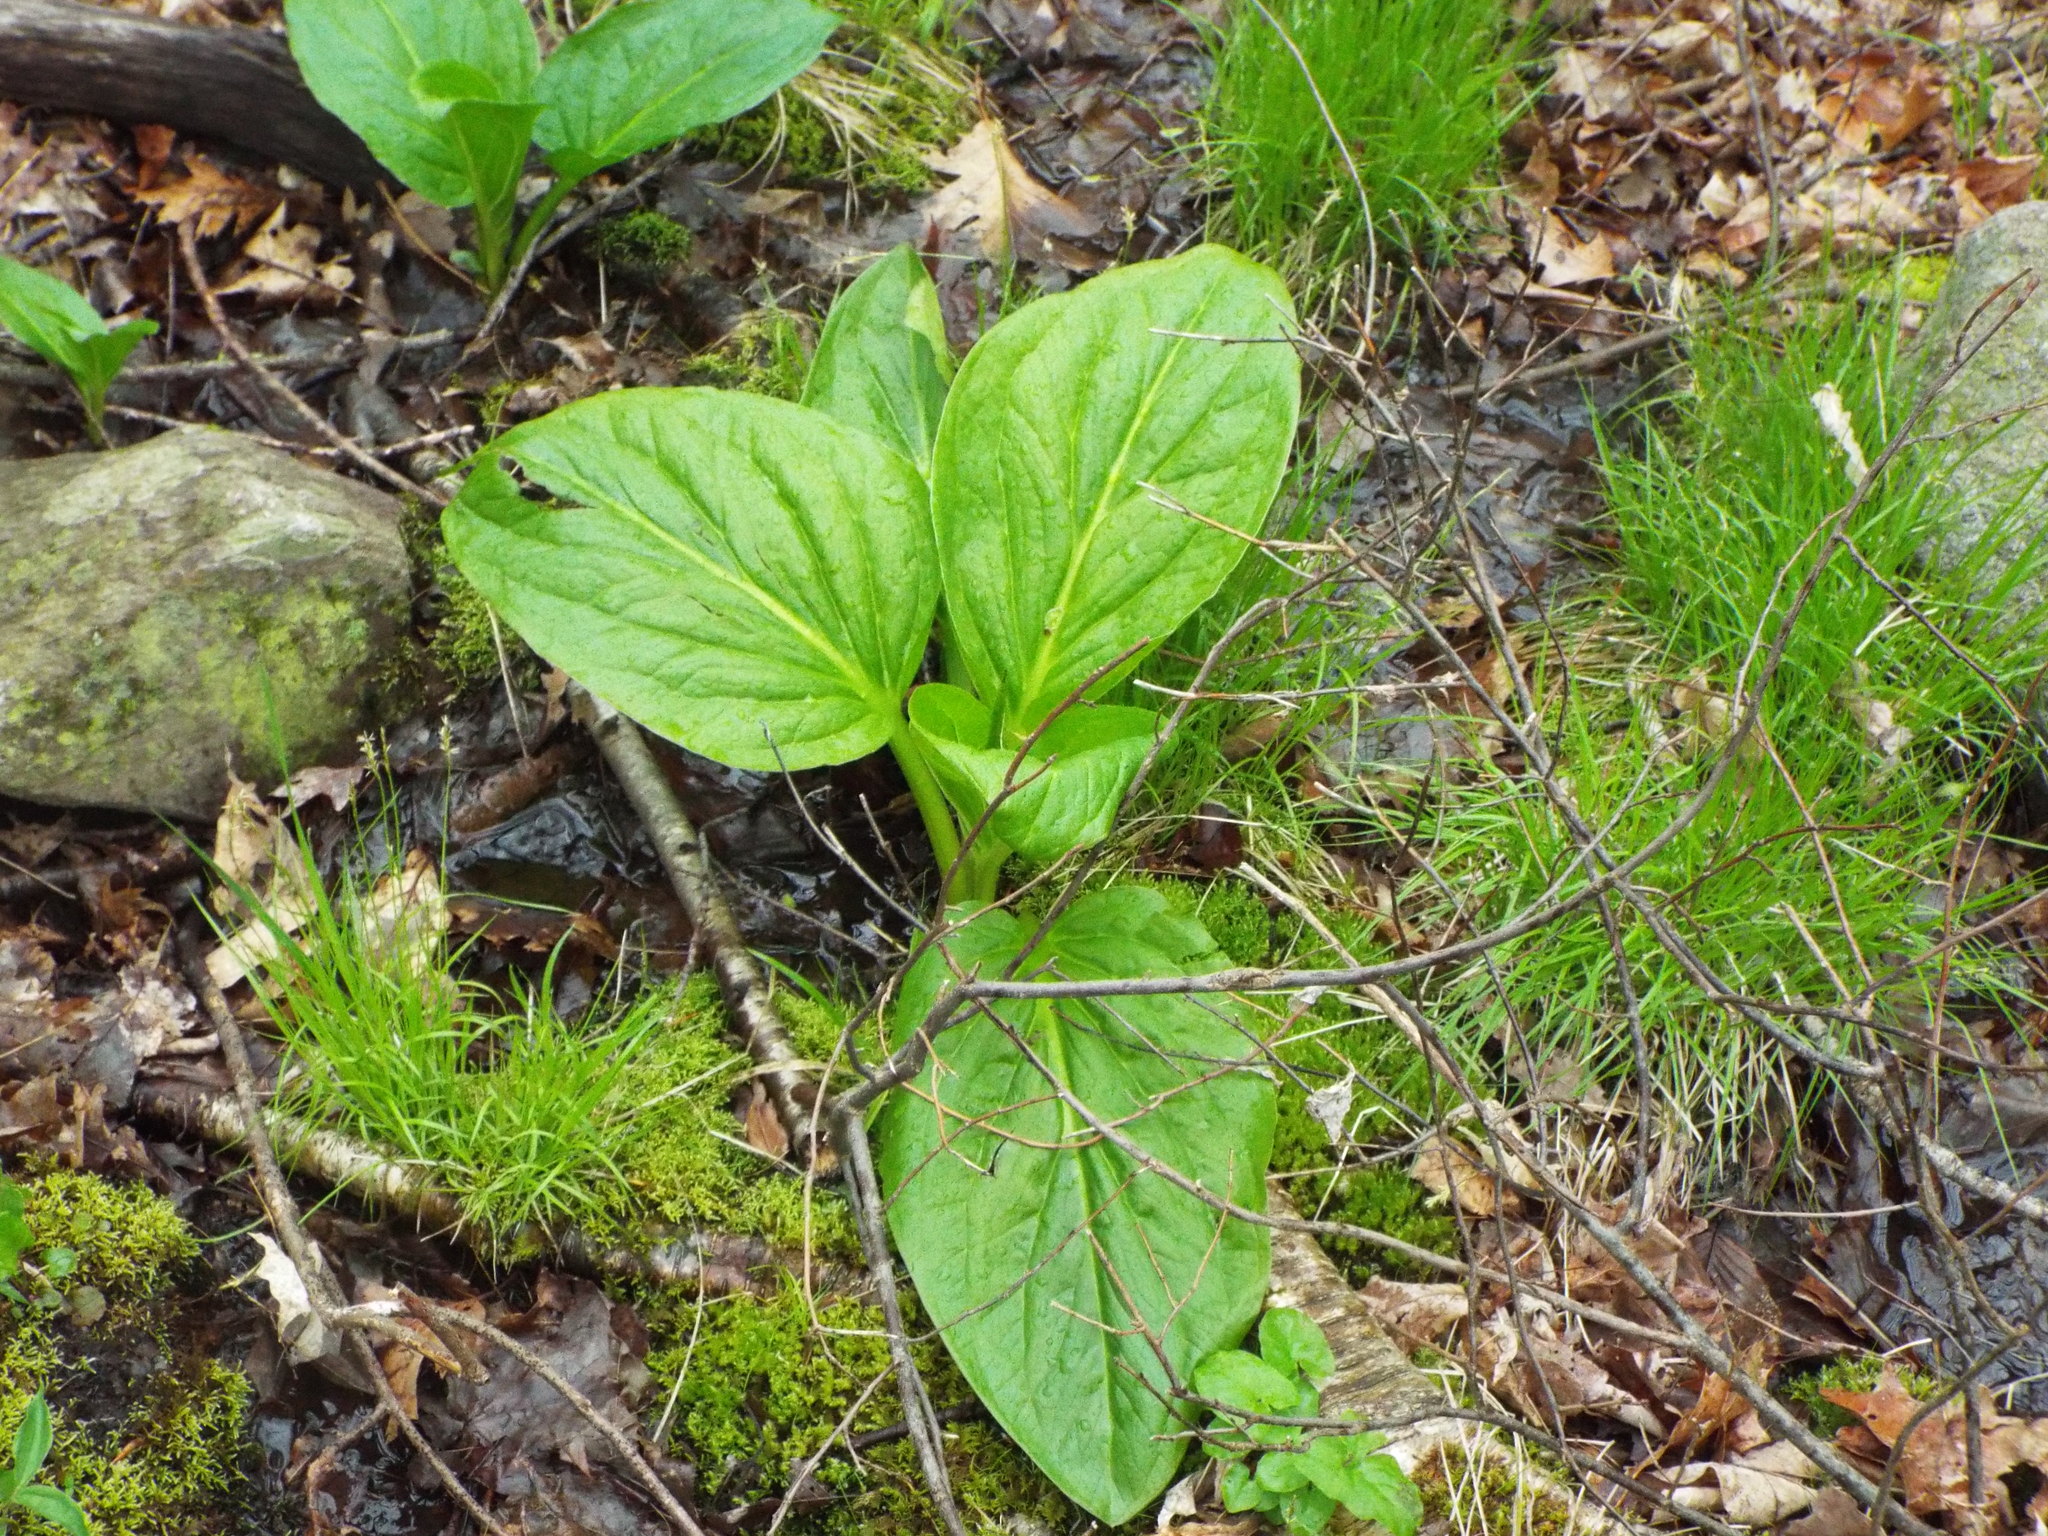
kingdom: Plantae
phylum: Tracheophyta
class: Liliopsida
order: Alismatales
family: Araceae
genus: Symplocarpus
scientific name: Symplocarpus foetidus
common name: Eastern skunk cabbage
